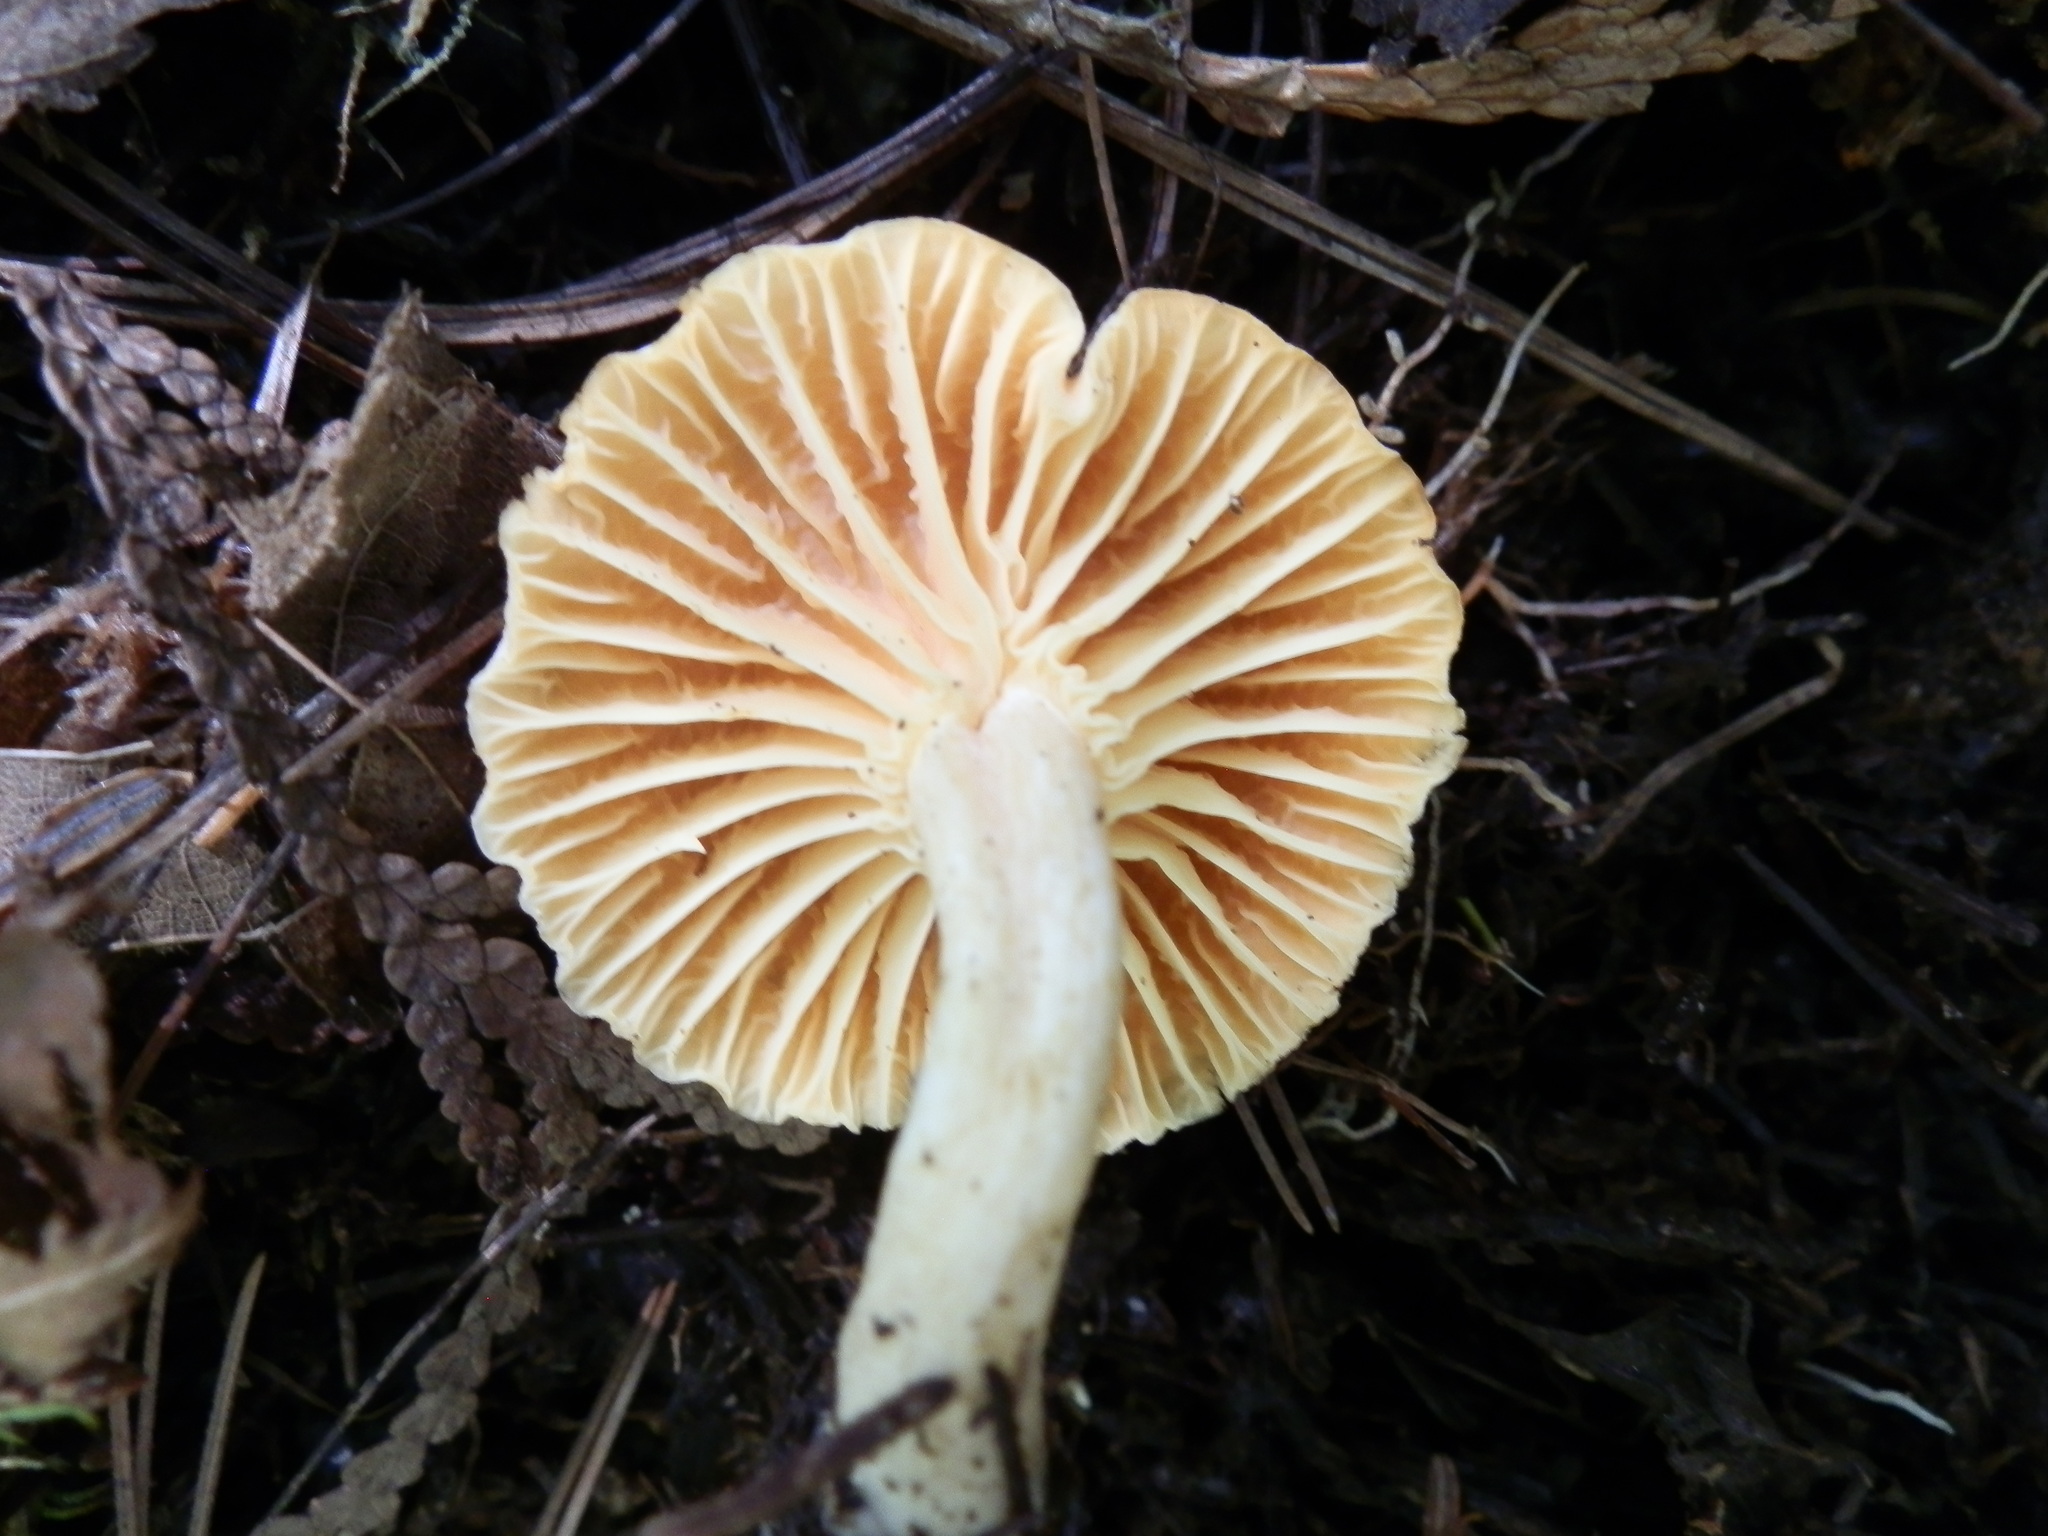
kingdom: Fungi
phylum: Basidiomycota
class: Agaricomycetes
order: Agaricales
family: Hygrophoraceae
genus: Cuphophyllus
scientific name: Cuphophyllus pratensis
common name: Meadow waxcap
